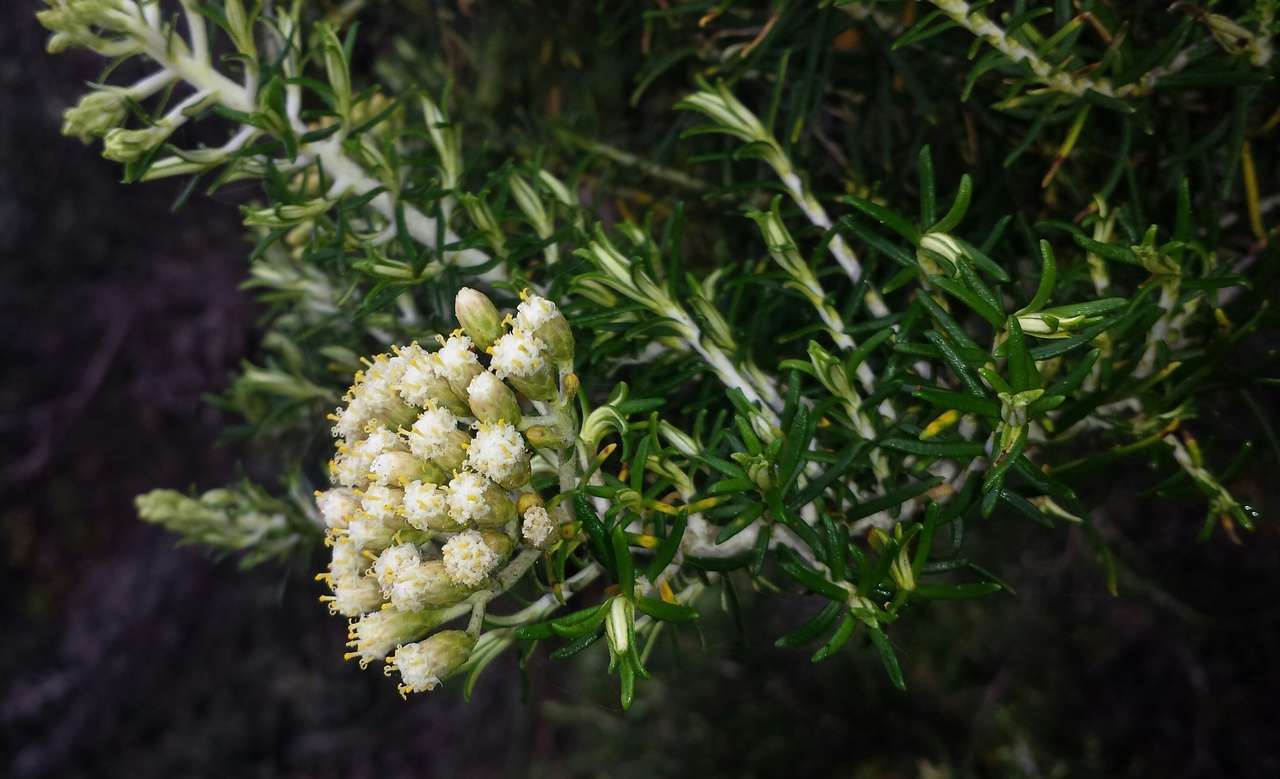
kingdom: Plantae
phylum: Tracheophyta
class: Magnoliopsida
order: Asterales
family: Asteraceae
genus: Ozothamnus
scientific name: Ozothamnus cinereus
